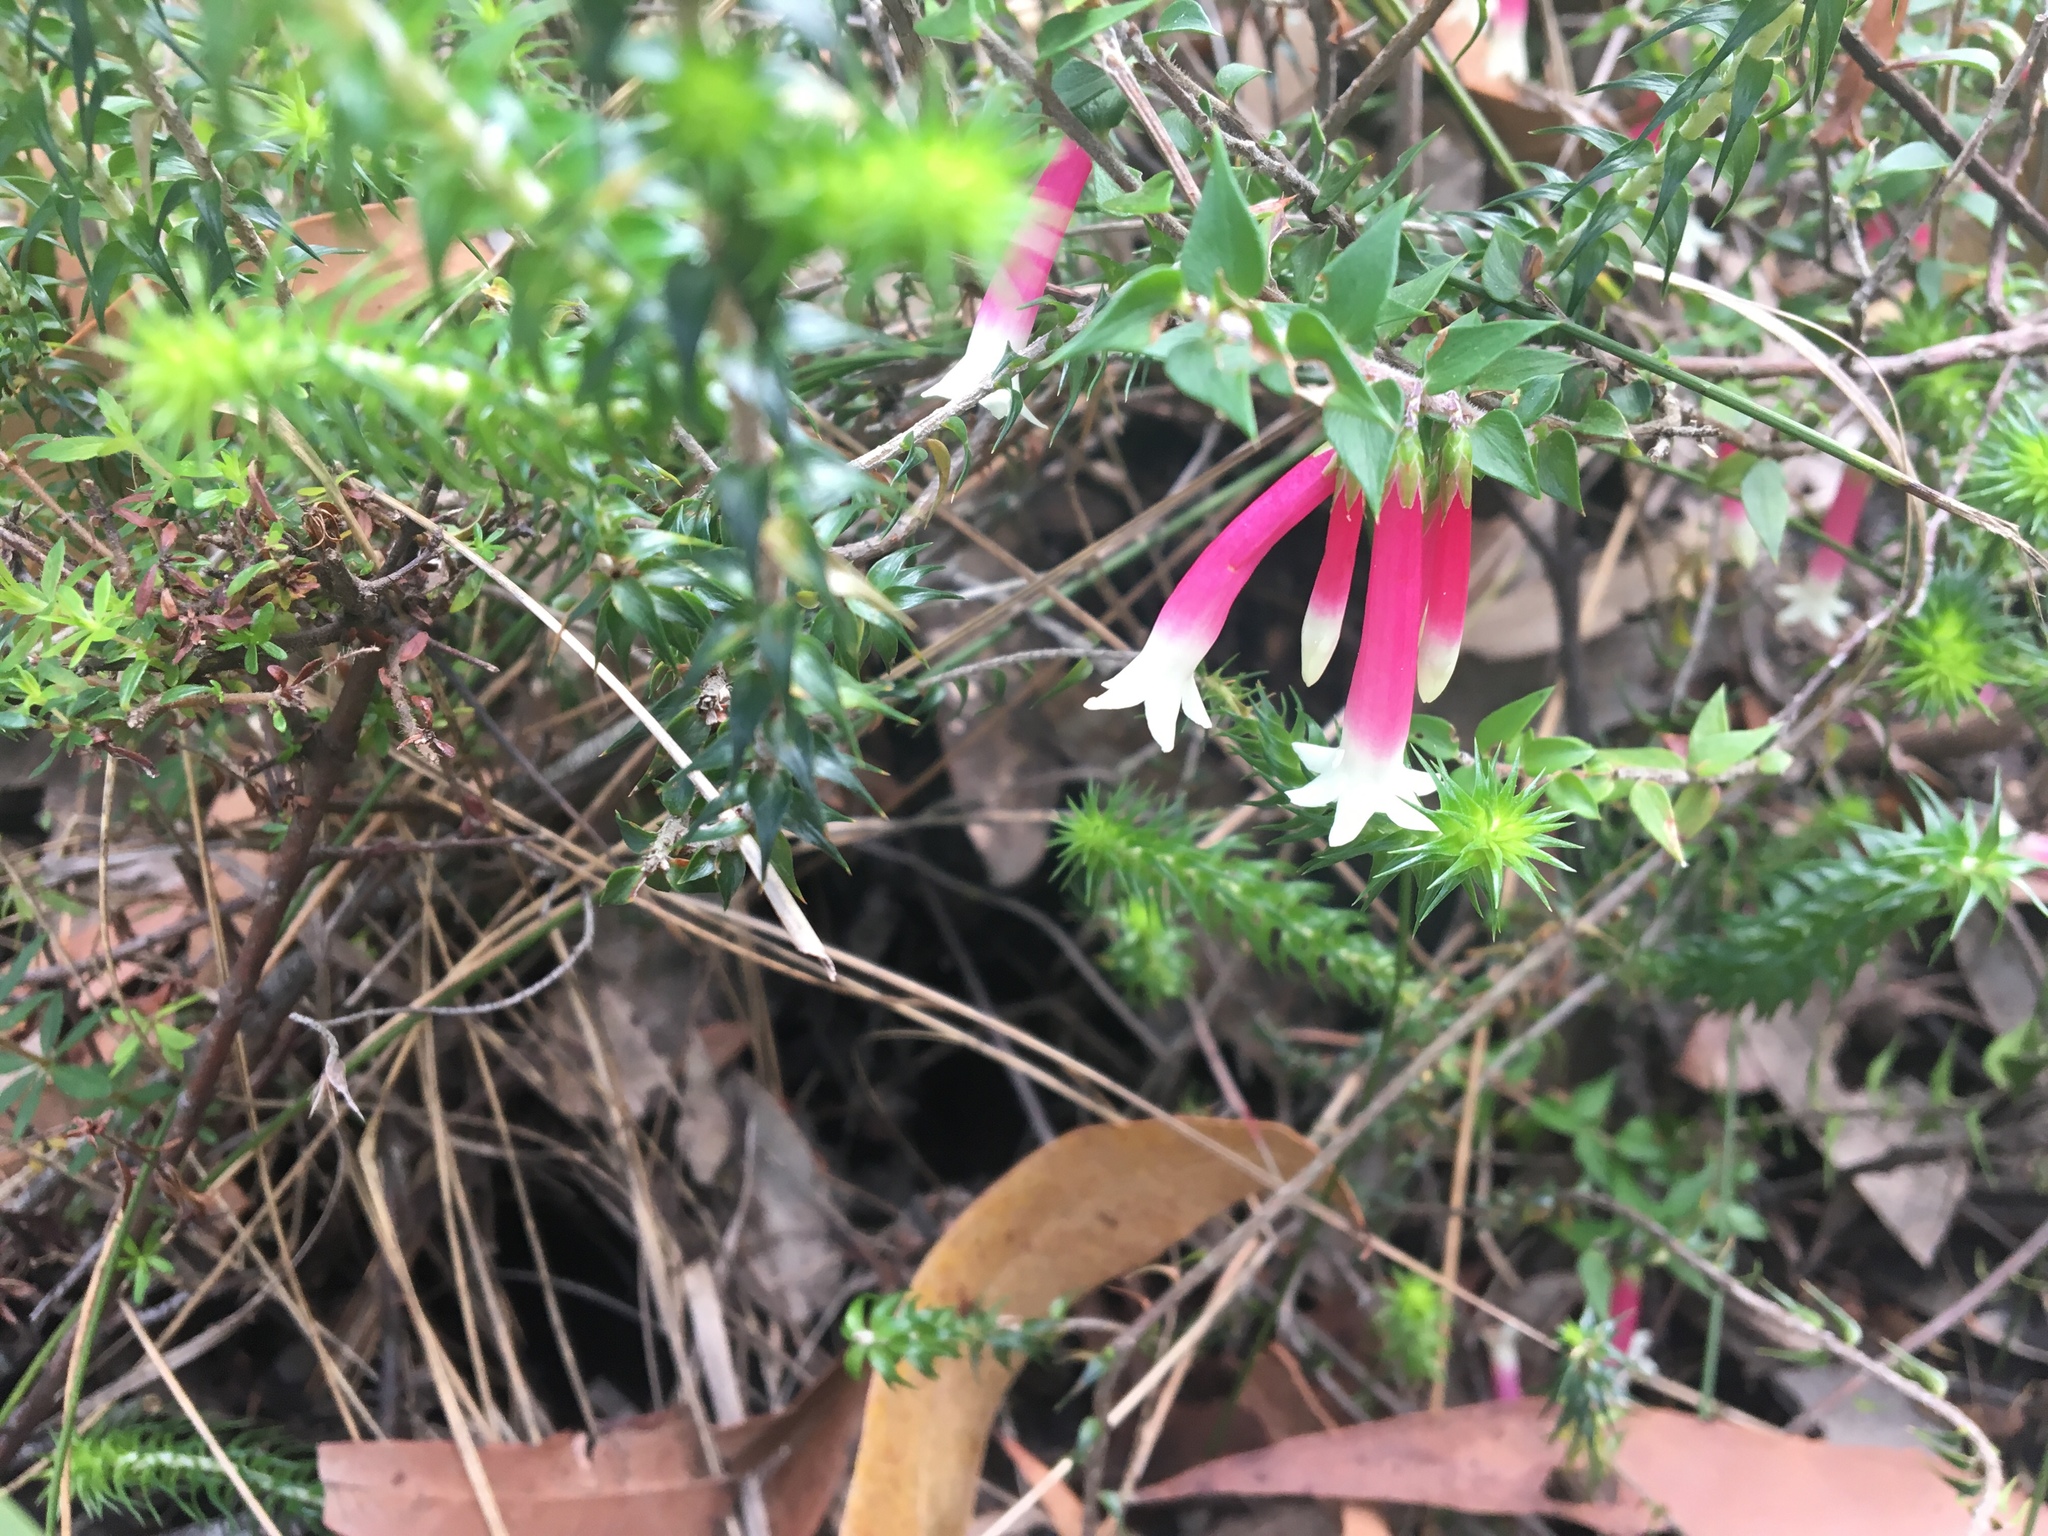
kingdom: Plantae
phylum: Tracheophyta
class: Magnoliopsida
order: Ericales
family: Ericaceae
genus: Epacris
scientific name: Epacris longiflora
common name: Fuchsia-heath
